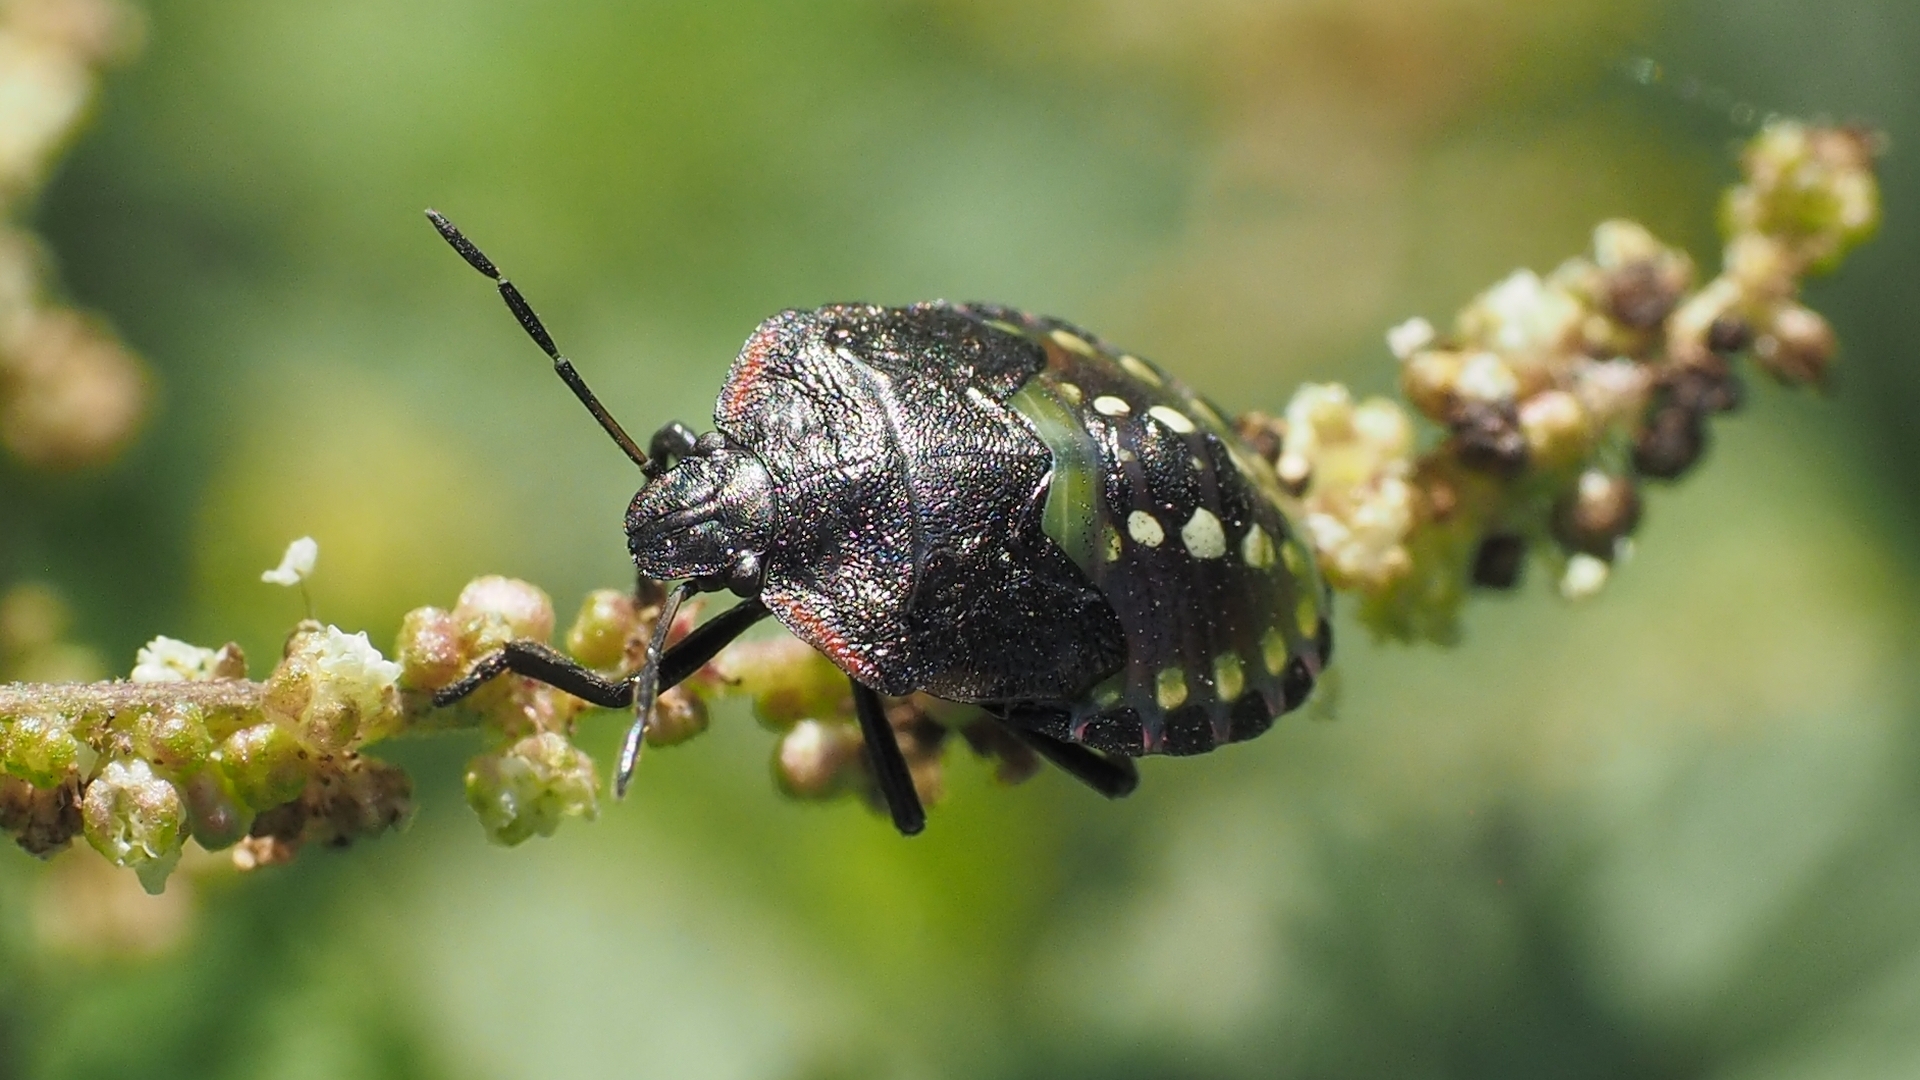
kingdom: Animalia
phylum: Arthropoda
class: Insecta
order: Hemiptera
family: Pentatomidae
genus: Nezara
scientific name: Nezara viridula
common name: Southern green stink bug
